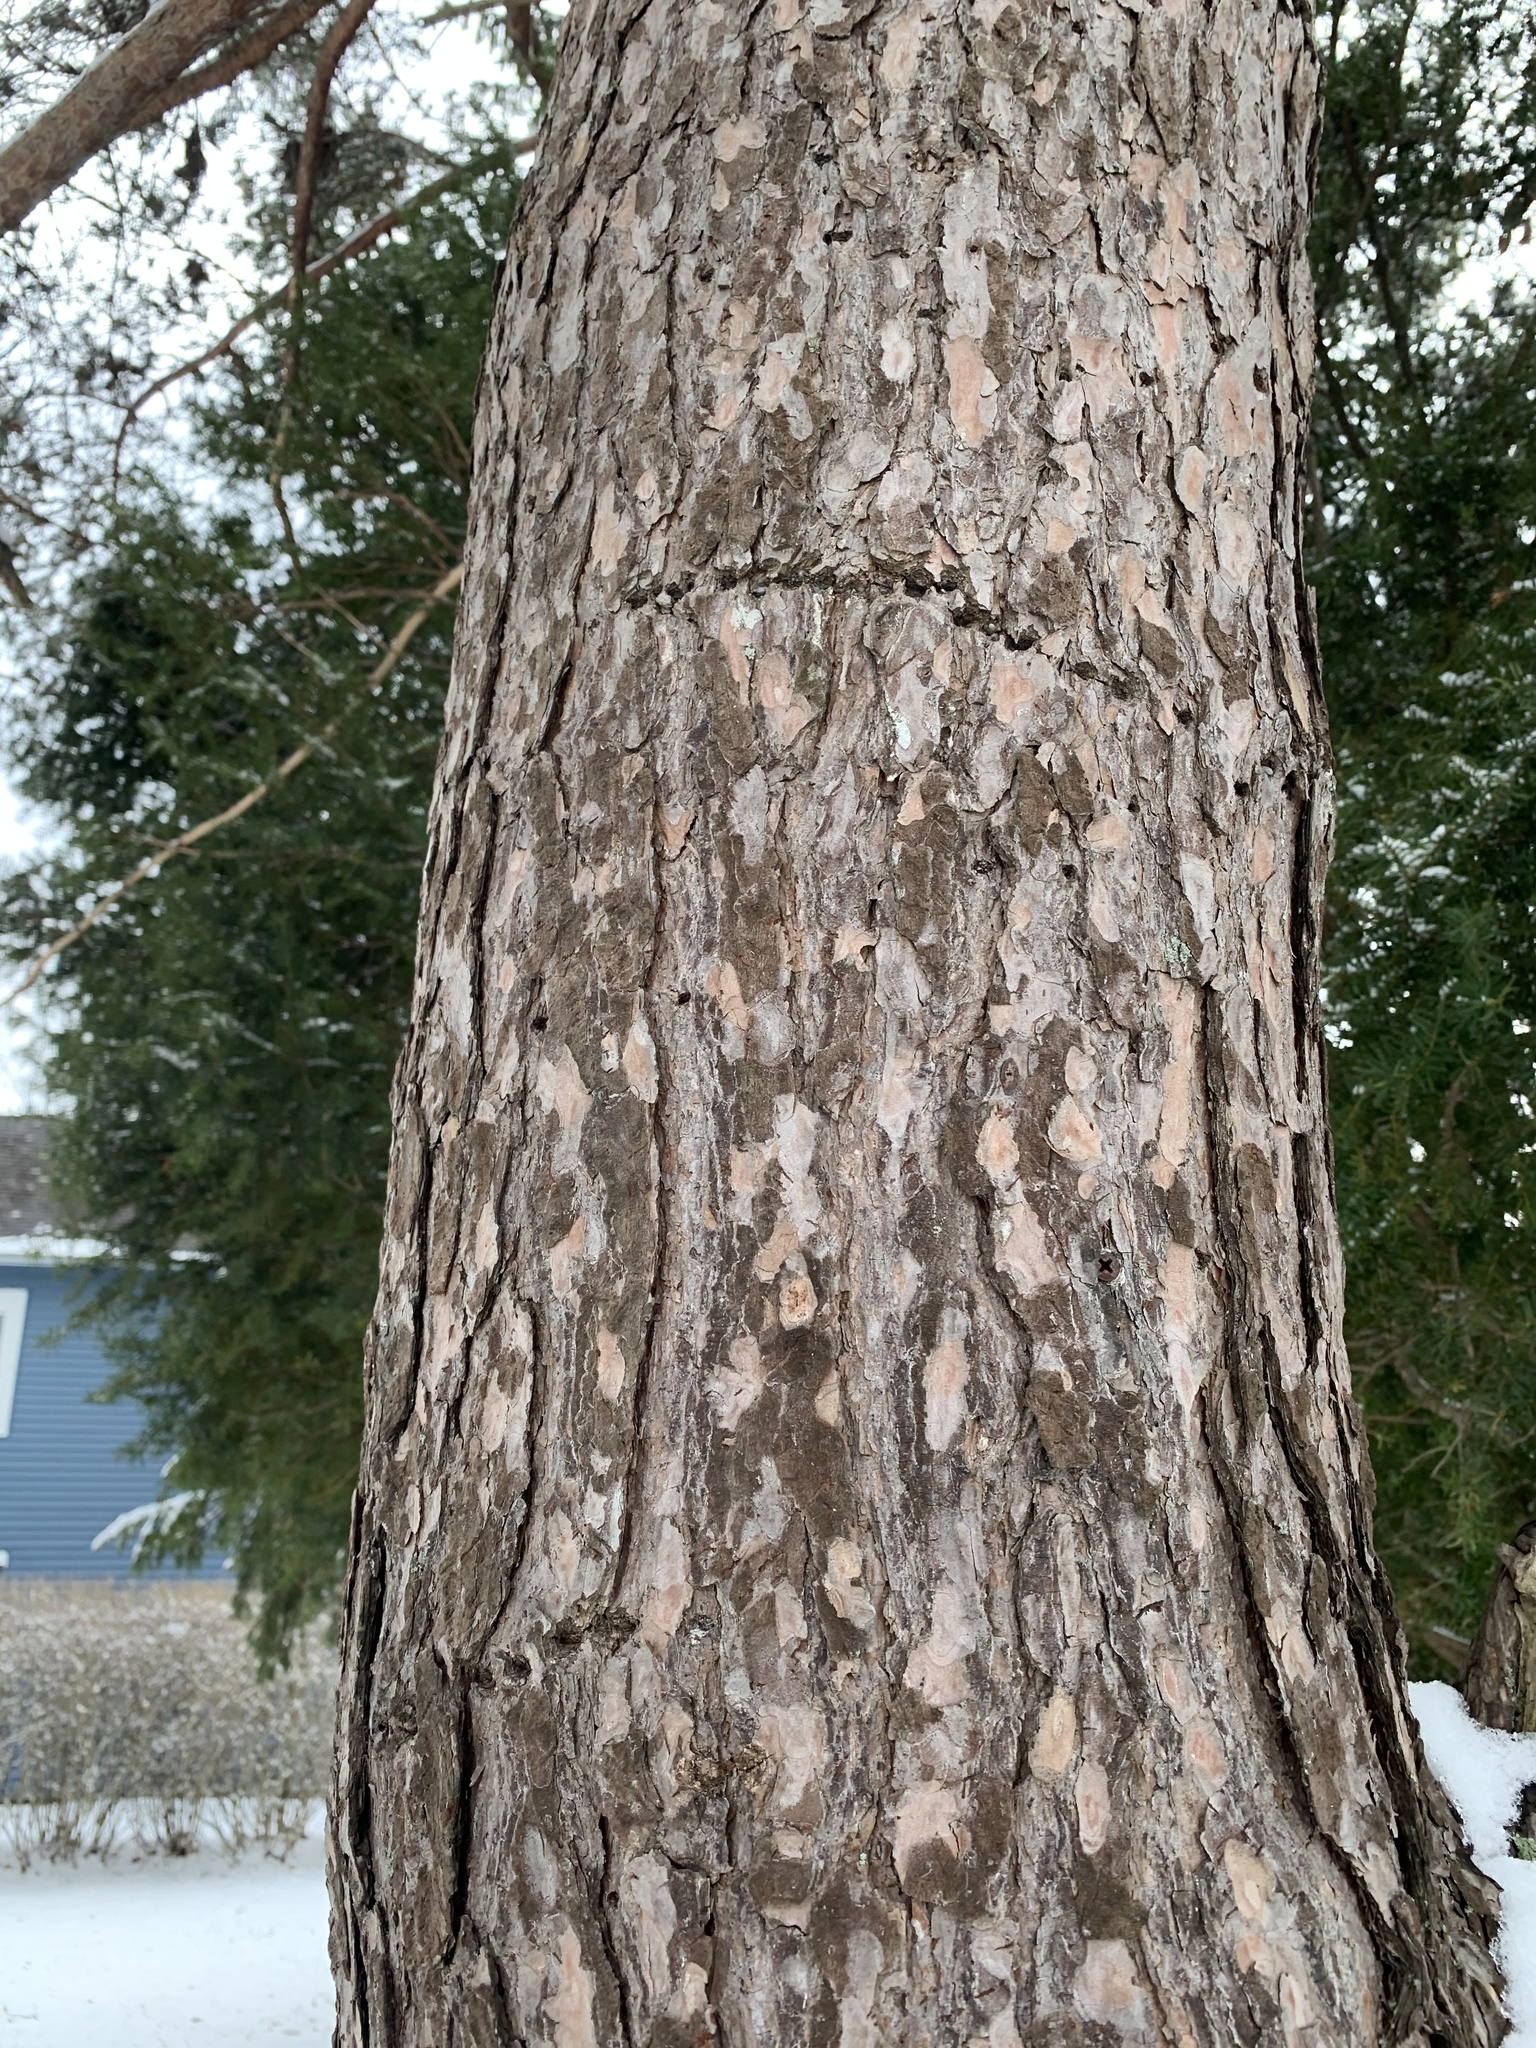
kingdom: Animalia
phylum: Chordata
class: Aves
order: Piciformes
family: Picidae
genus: Sphyrapicus
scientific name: Sphyrapicus varius
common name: Yellow-bellied sapsucker
